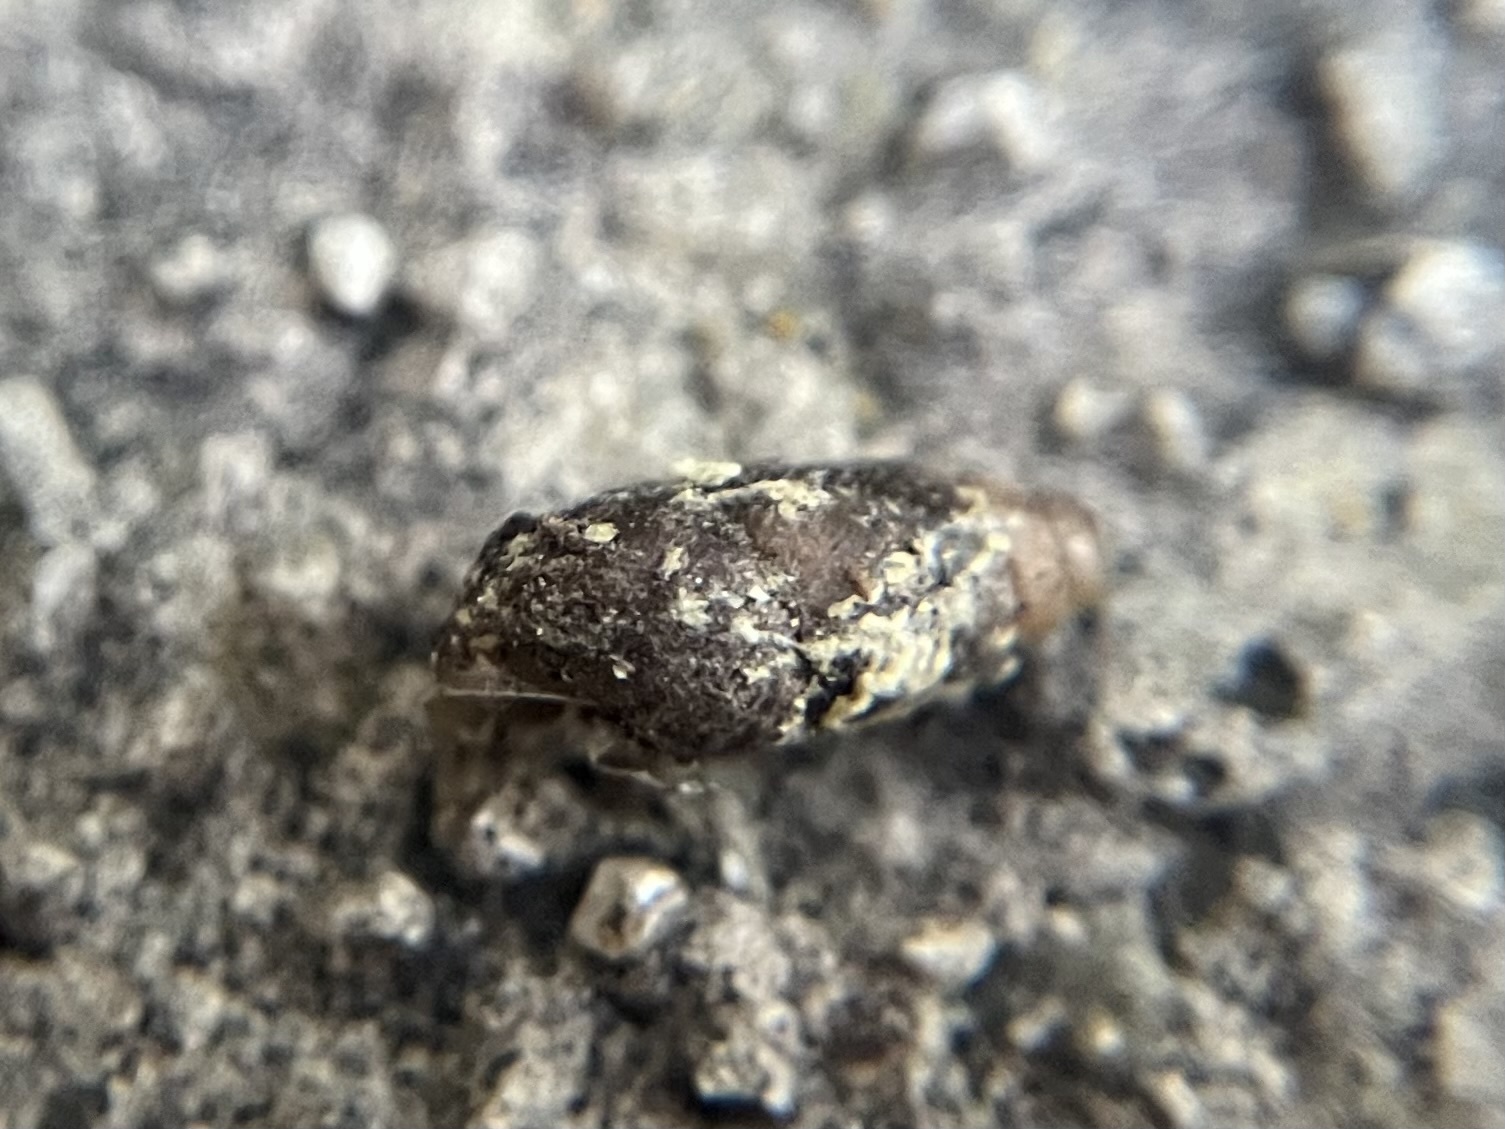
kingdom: Animalia
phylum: Mollusca
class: Gastropoda
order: Stylommatophora
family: Enidae
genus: Merdigera
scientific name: Merdigera obscura
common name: Lesser bulin
